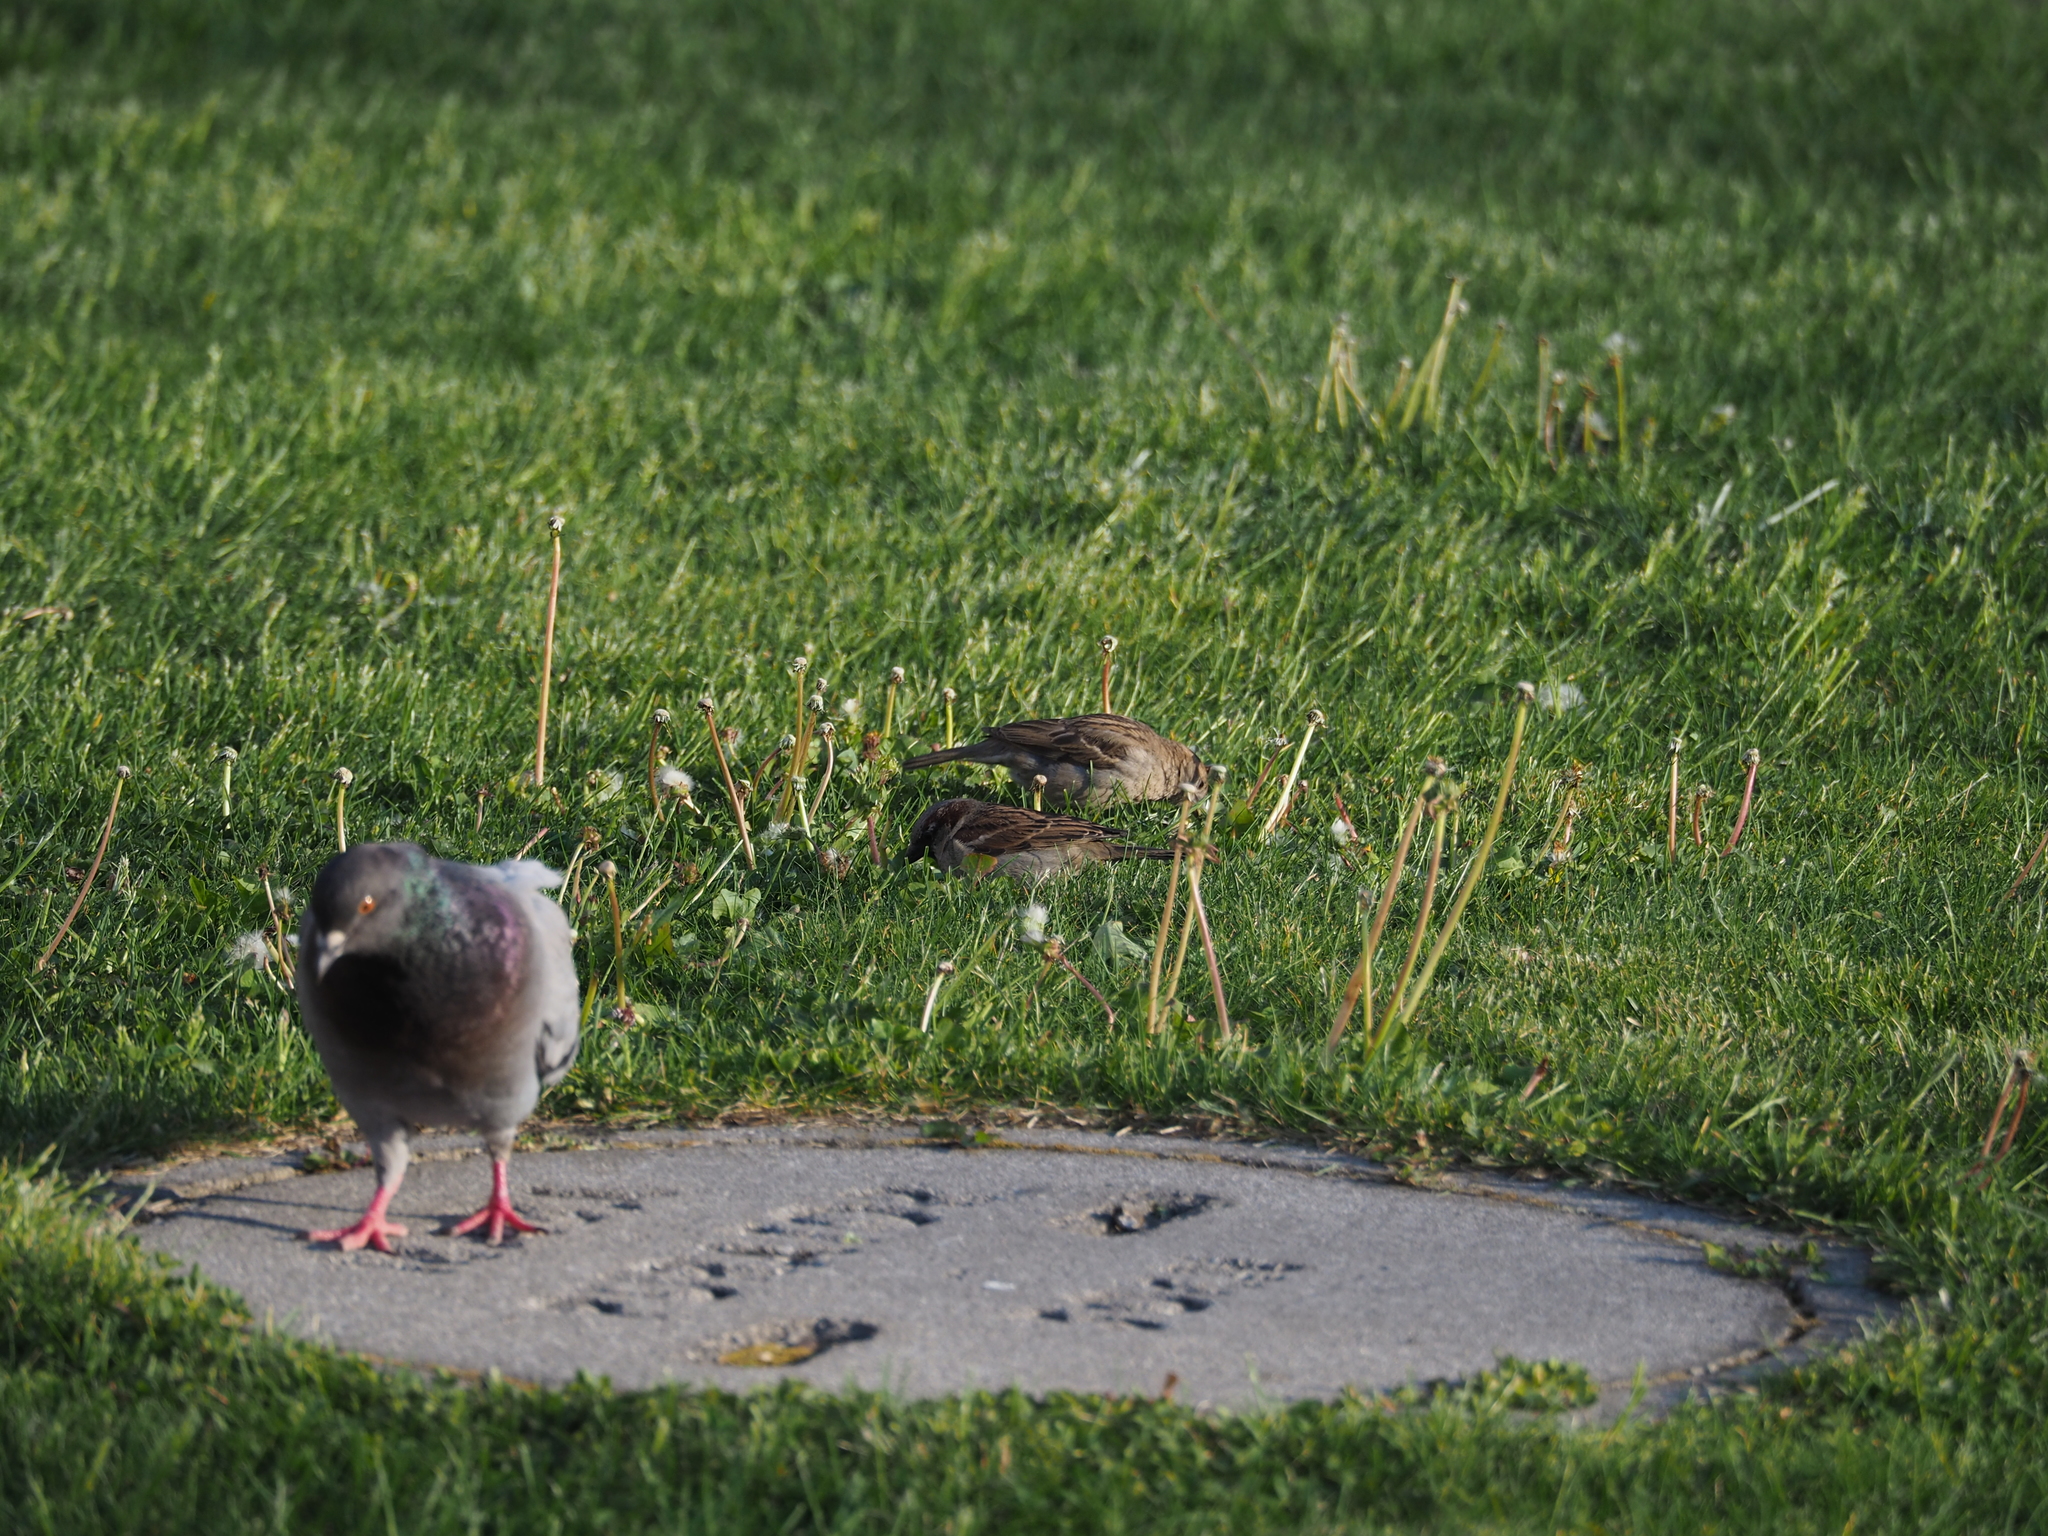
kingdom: Animalia
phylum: Chordata
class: Aves
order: Passeriformes
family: Passeridae
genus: Passer
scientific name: Passer domesticus
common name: House sparrow
